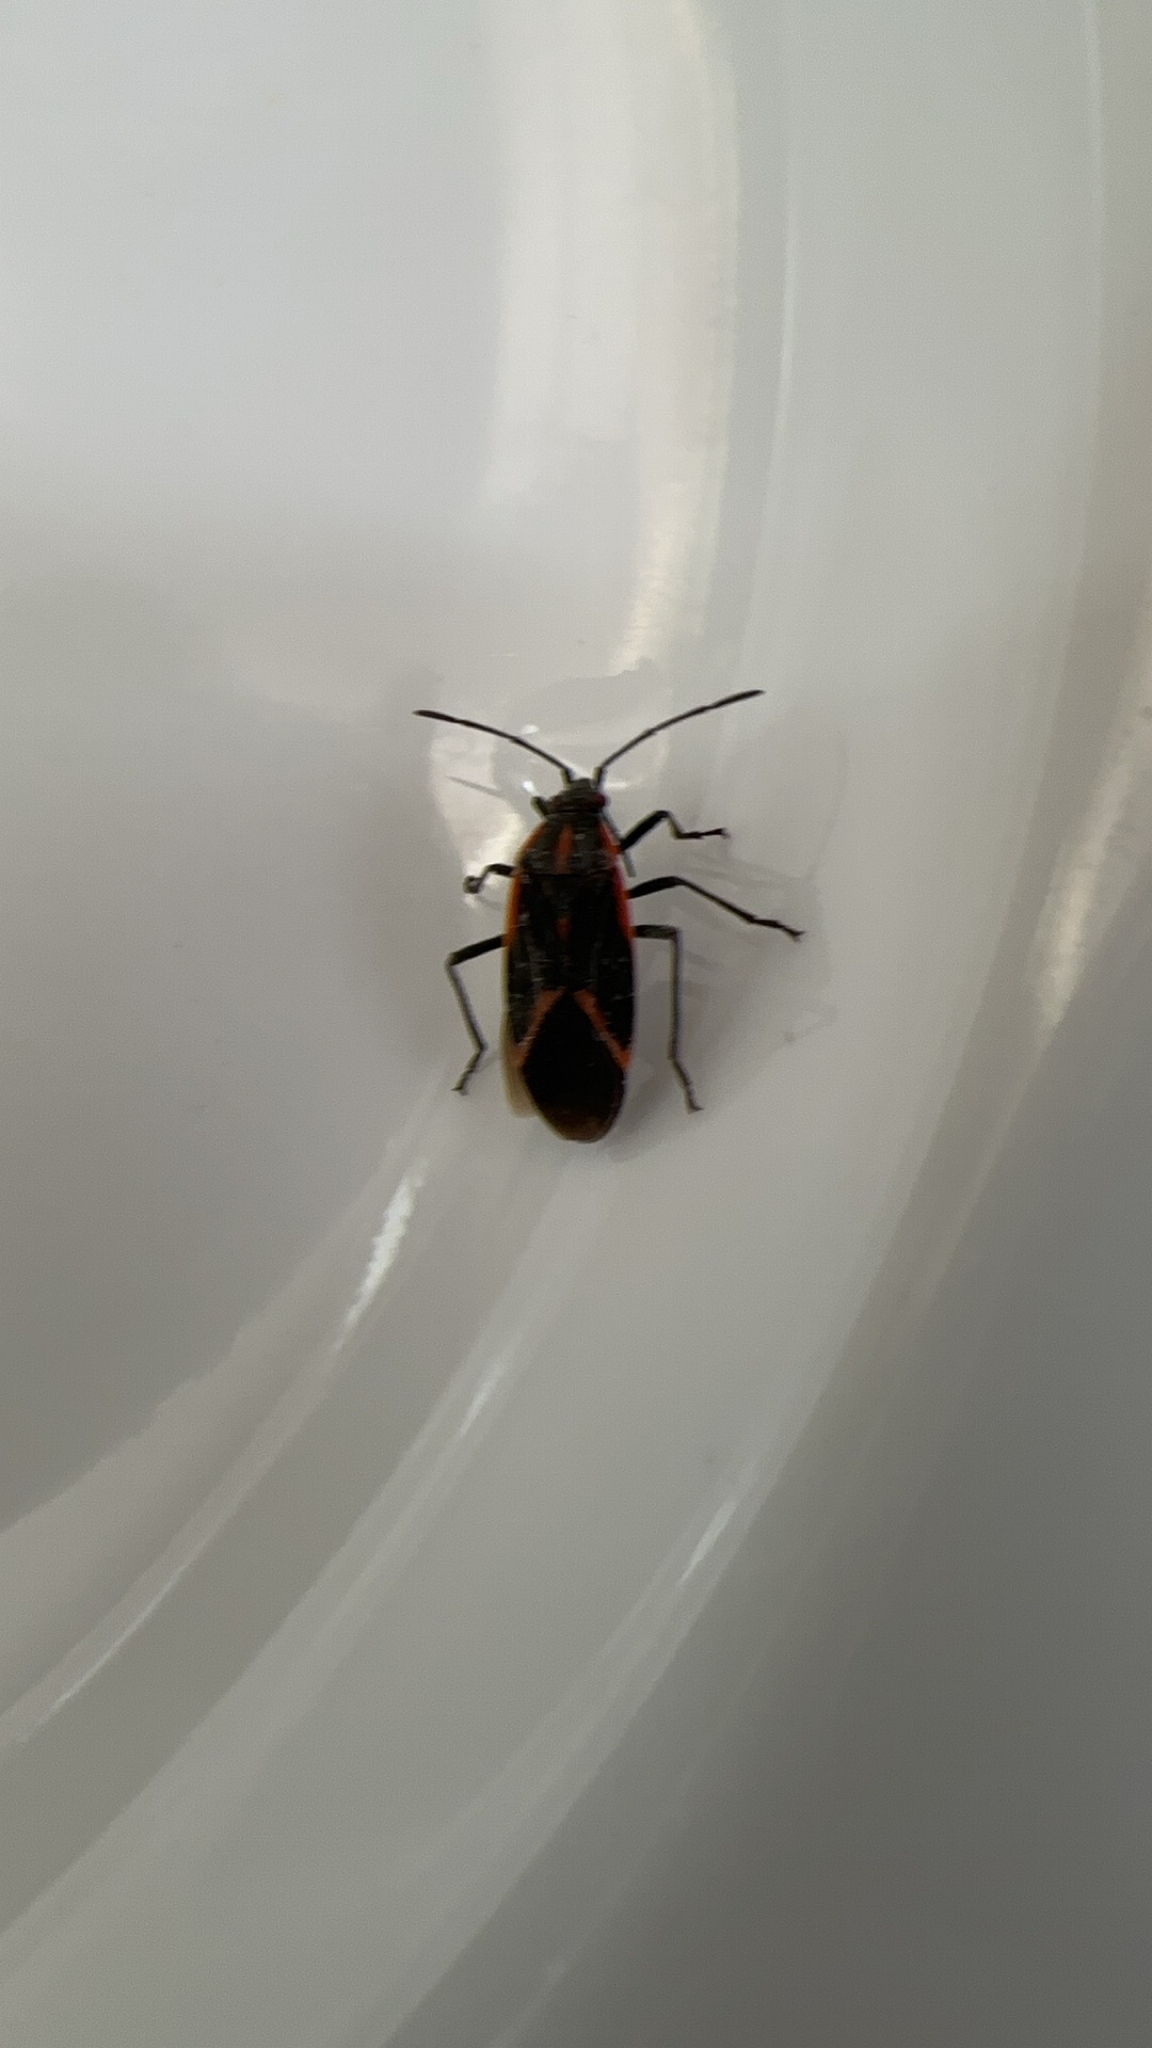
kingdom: Animalia
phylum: Arthropoda
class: Insecta
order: Hemiptera
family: Rhopalidae
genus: Boisea
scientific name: Boisea trivittata
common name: Boxelder bug
